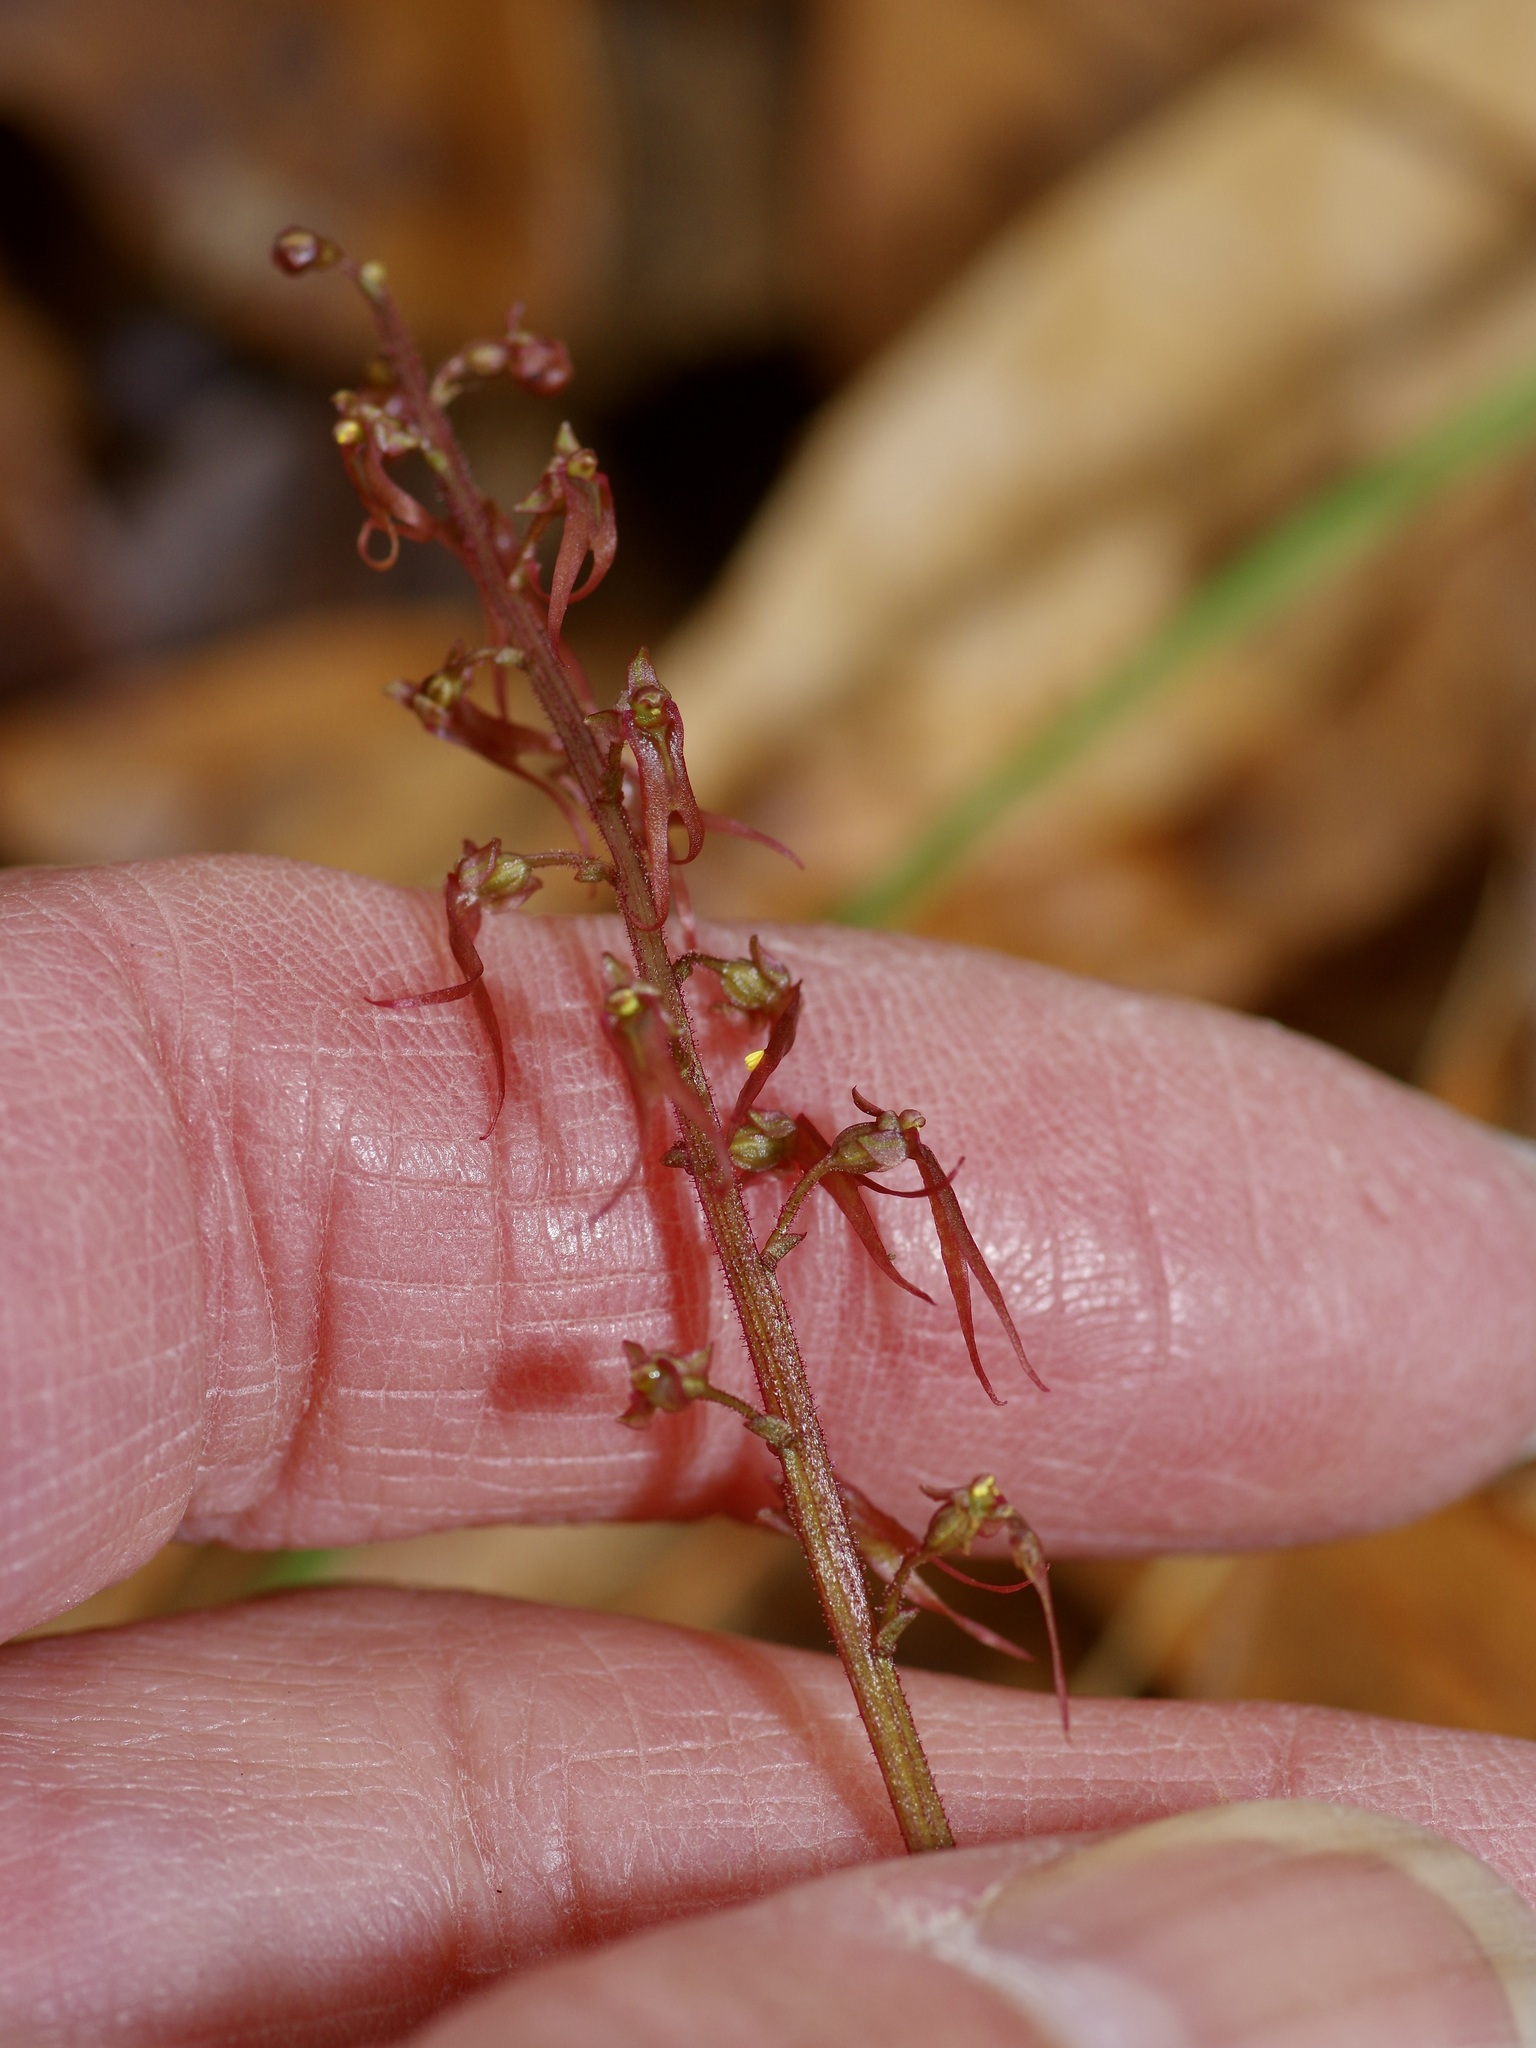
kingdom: Plantae
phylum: Tracheophyta
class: Liliopsida
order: Asparagales
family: Orchidaceae
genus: Neottia
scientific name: Neottia bifolia
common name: Southern twayblade
